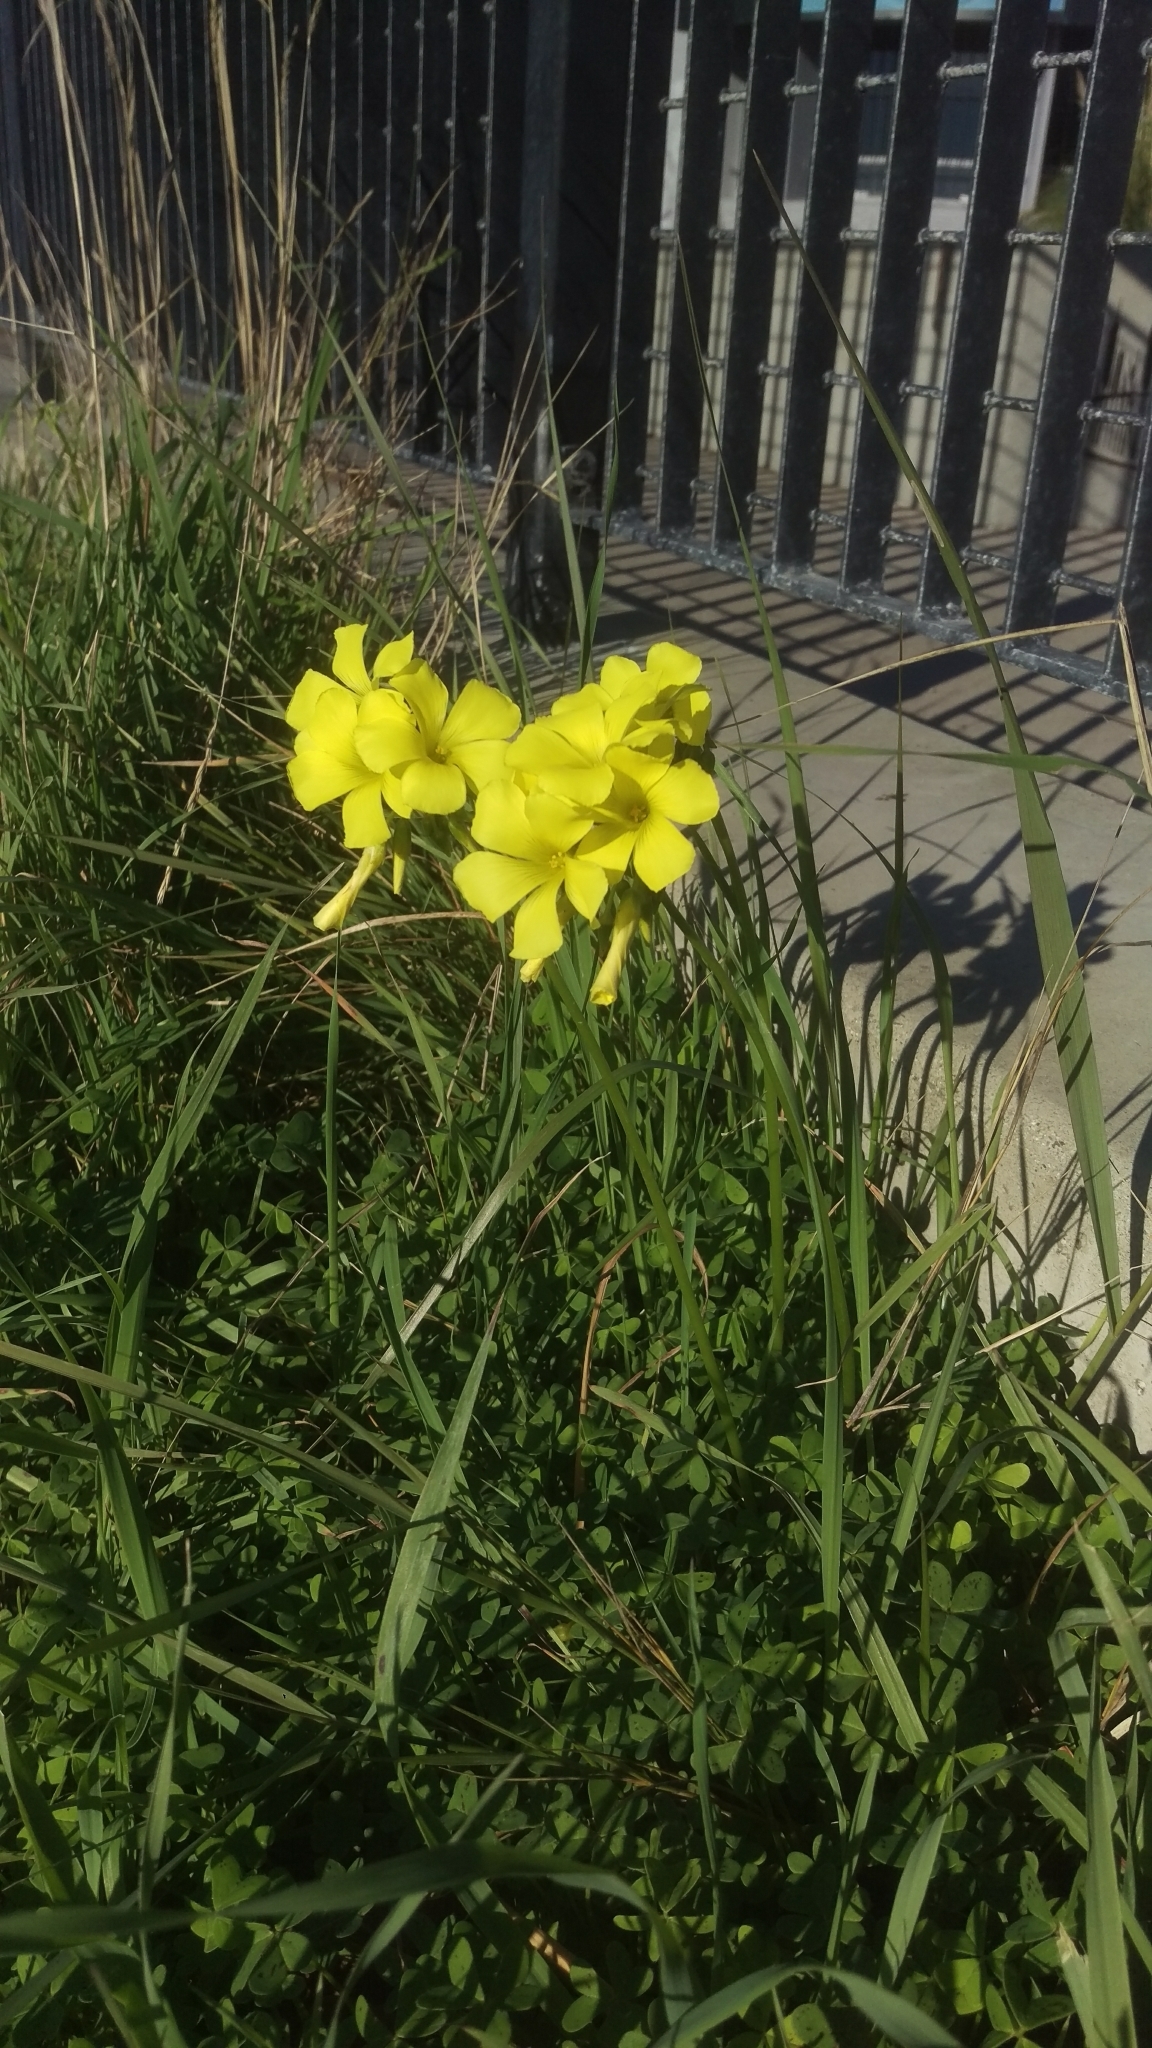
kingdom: Plantae
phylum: Tracheophyta
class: Magnoliopsida
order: Oxalidales
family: Oxalidaceae
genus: Oxalis
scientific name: Oxalis pes-caprae
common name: Bermuda-buttercup
